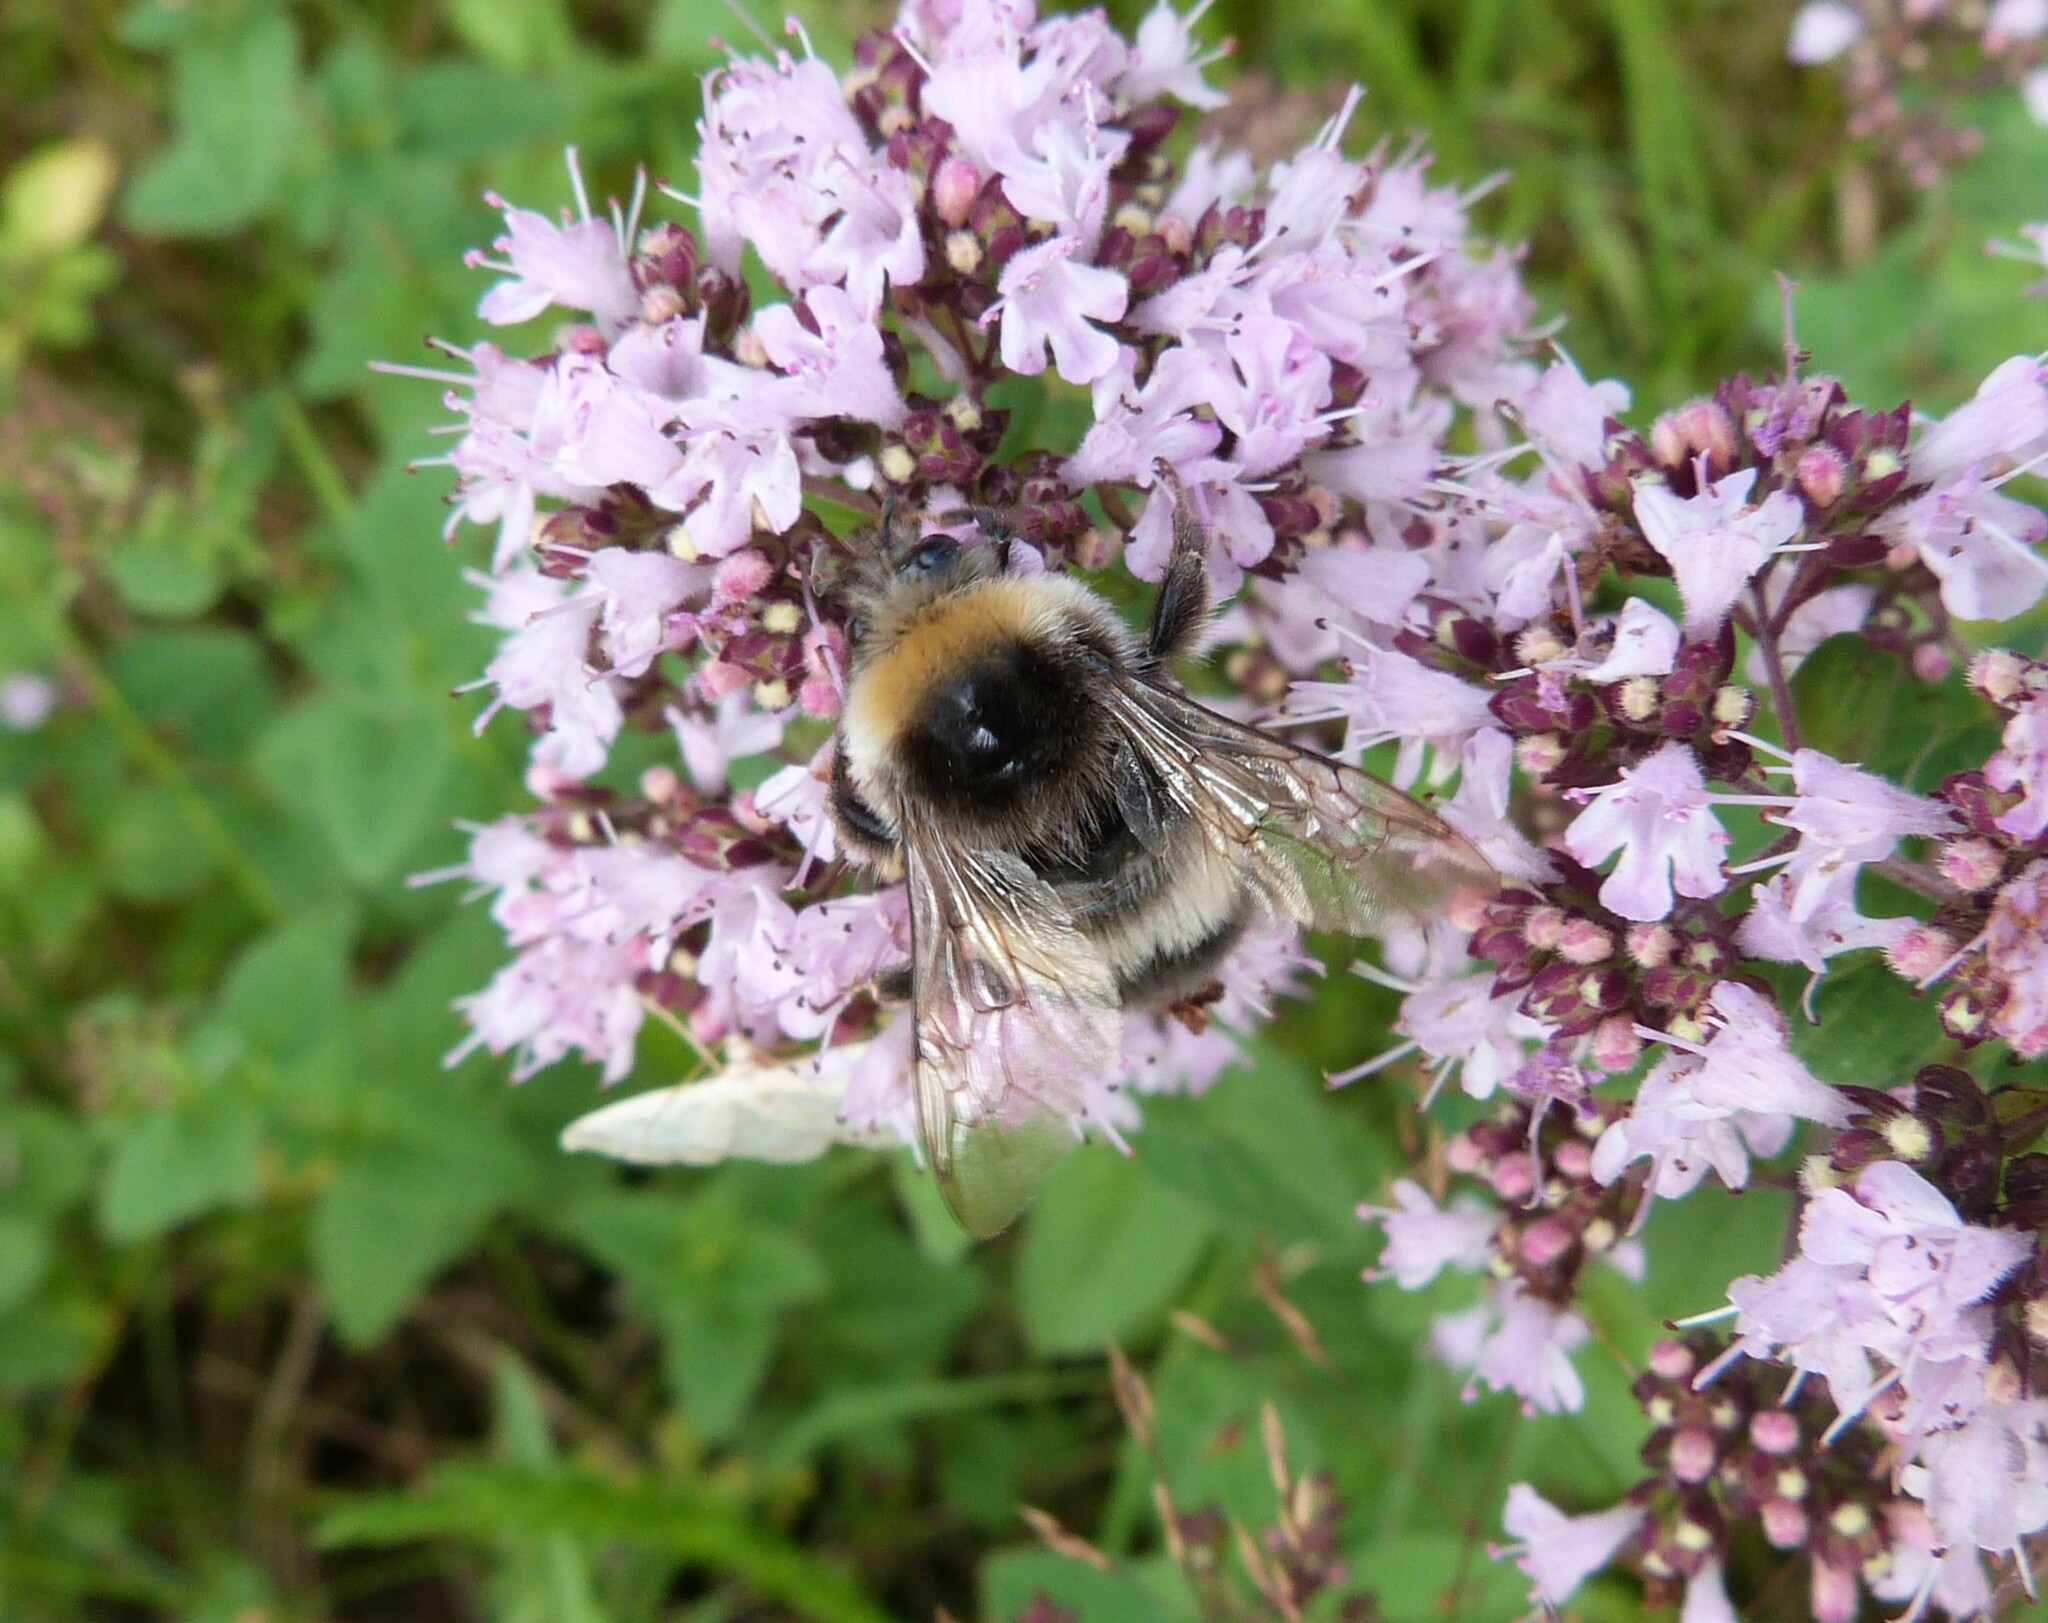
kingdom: Animalia
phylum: Arthropoda
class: Insecta
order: Hymenoptera
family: Apidae
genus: Bombus
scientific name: Bombus lucorum
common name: White-tailed bumblebee
